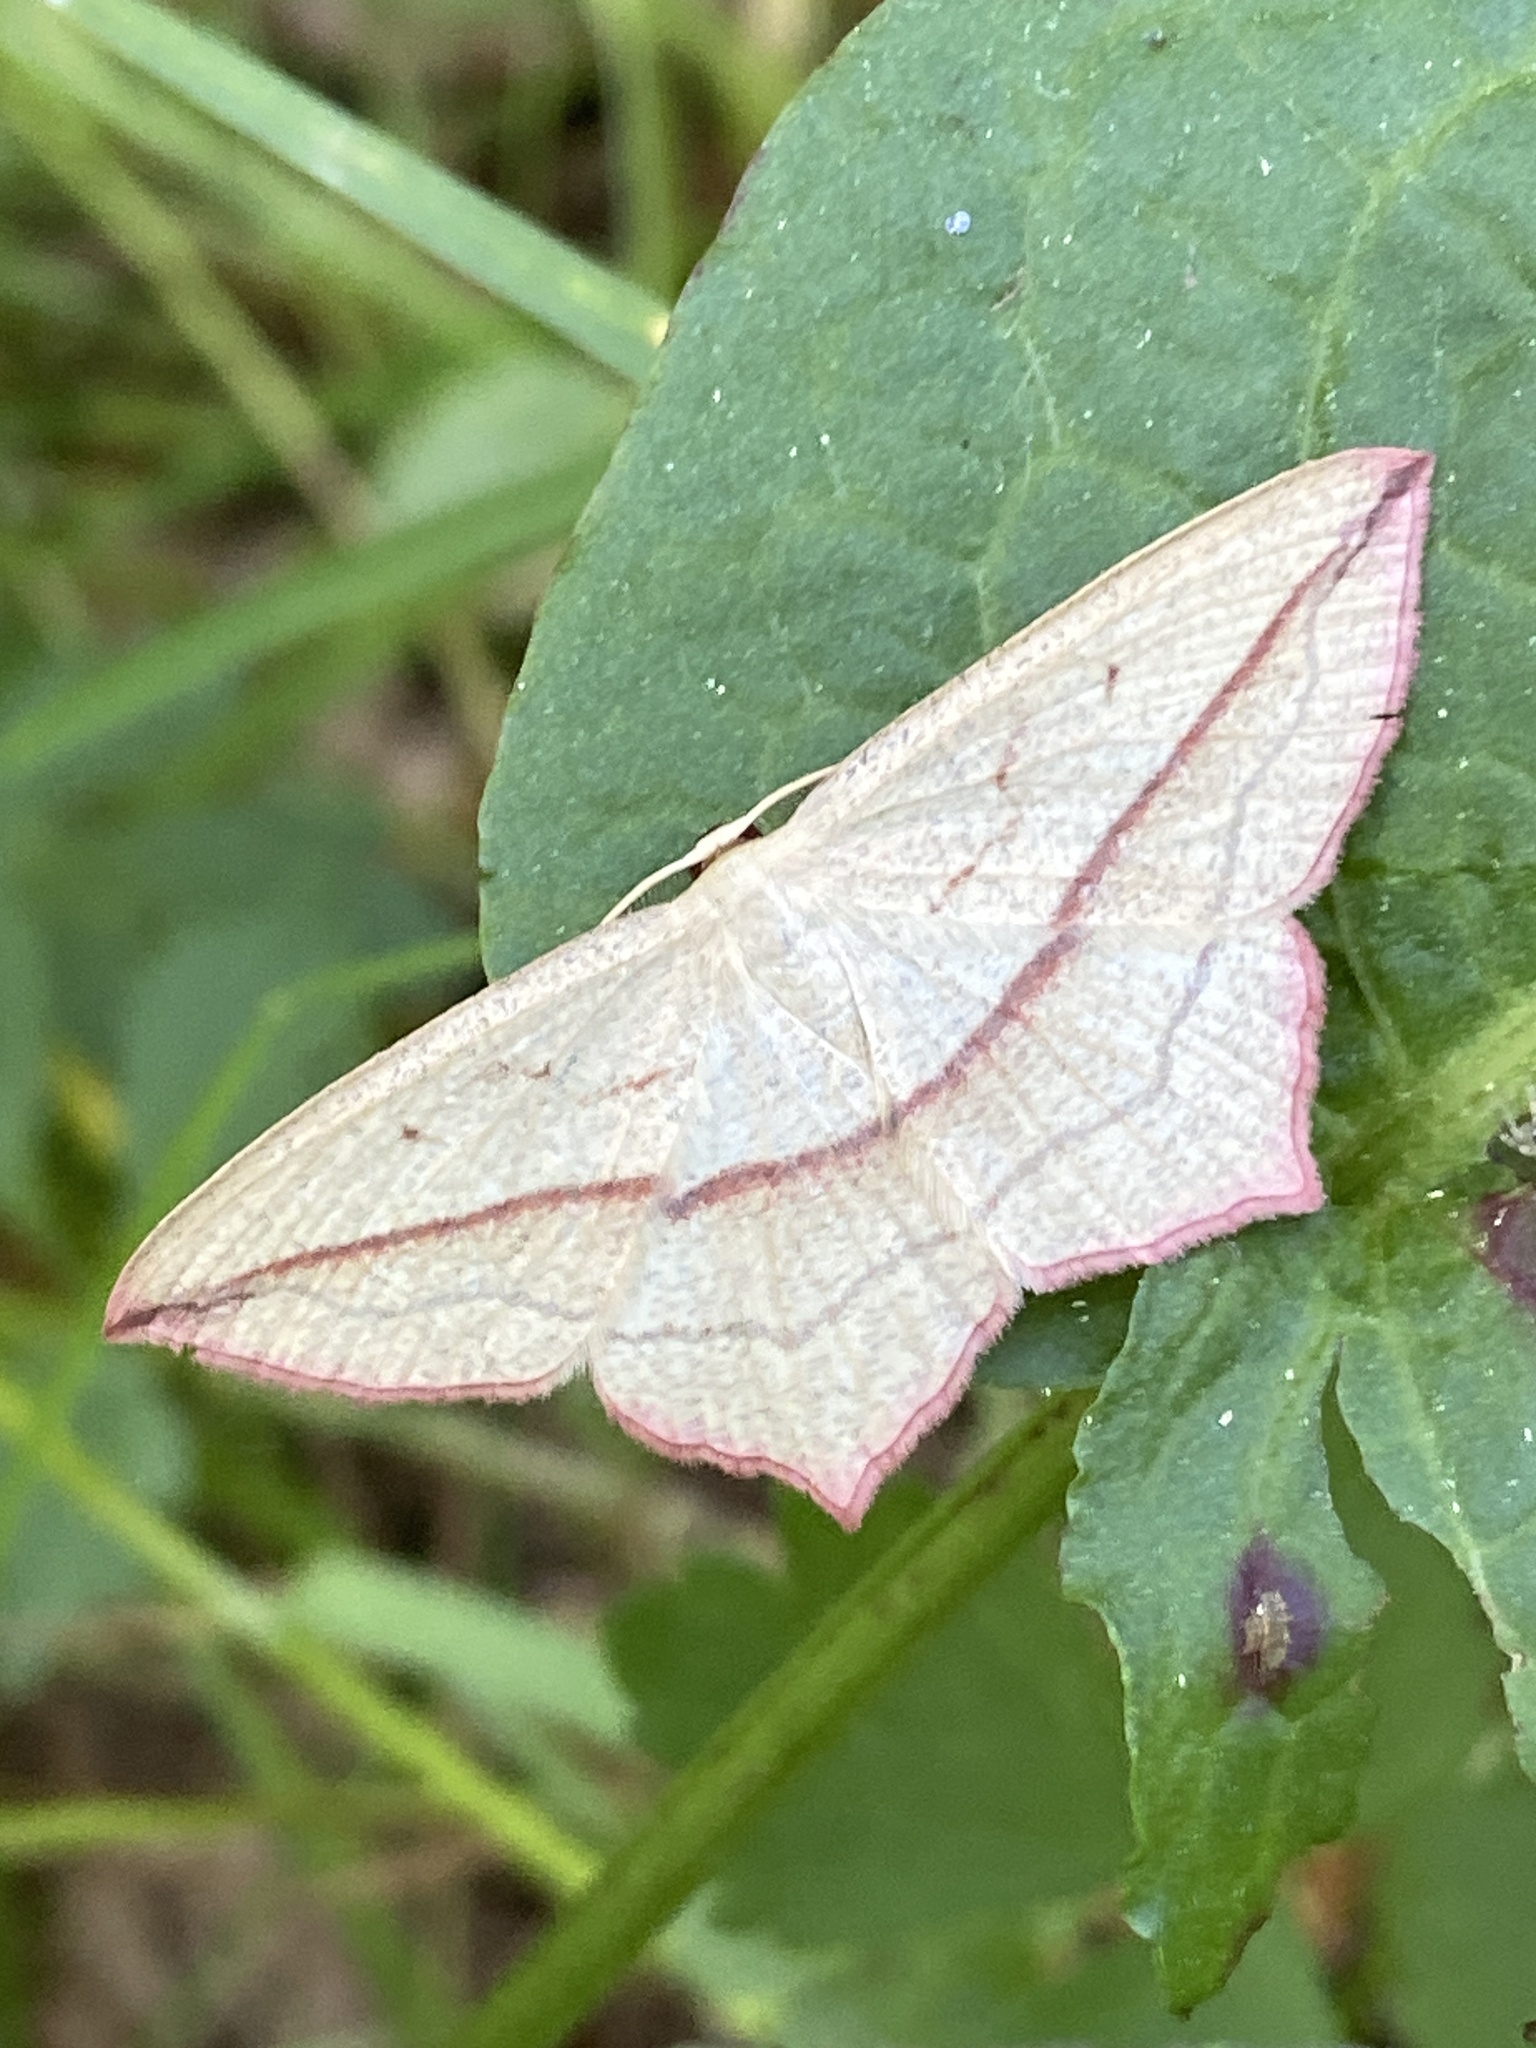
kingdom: Animalia
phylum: Arthropoda
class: Insecta
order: Lepidoptera
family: Geometridae
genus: Timandra
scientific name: Timandra comae
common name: Blood-vein
